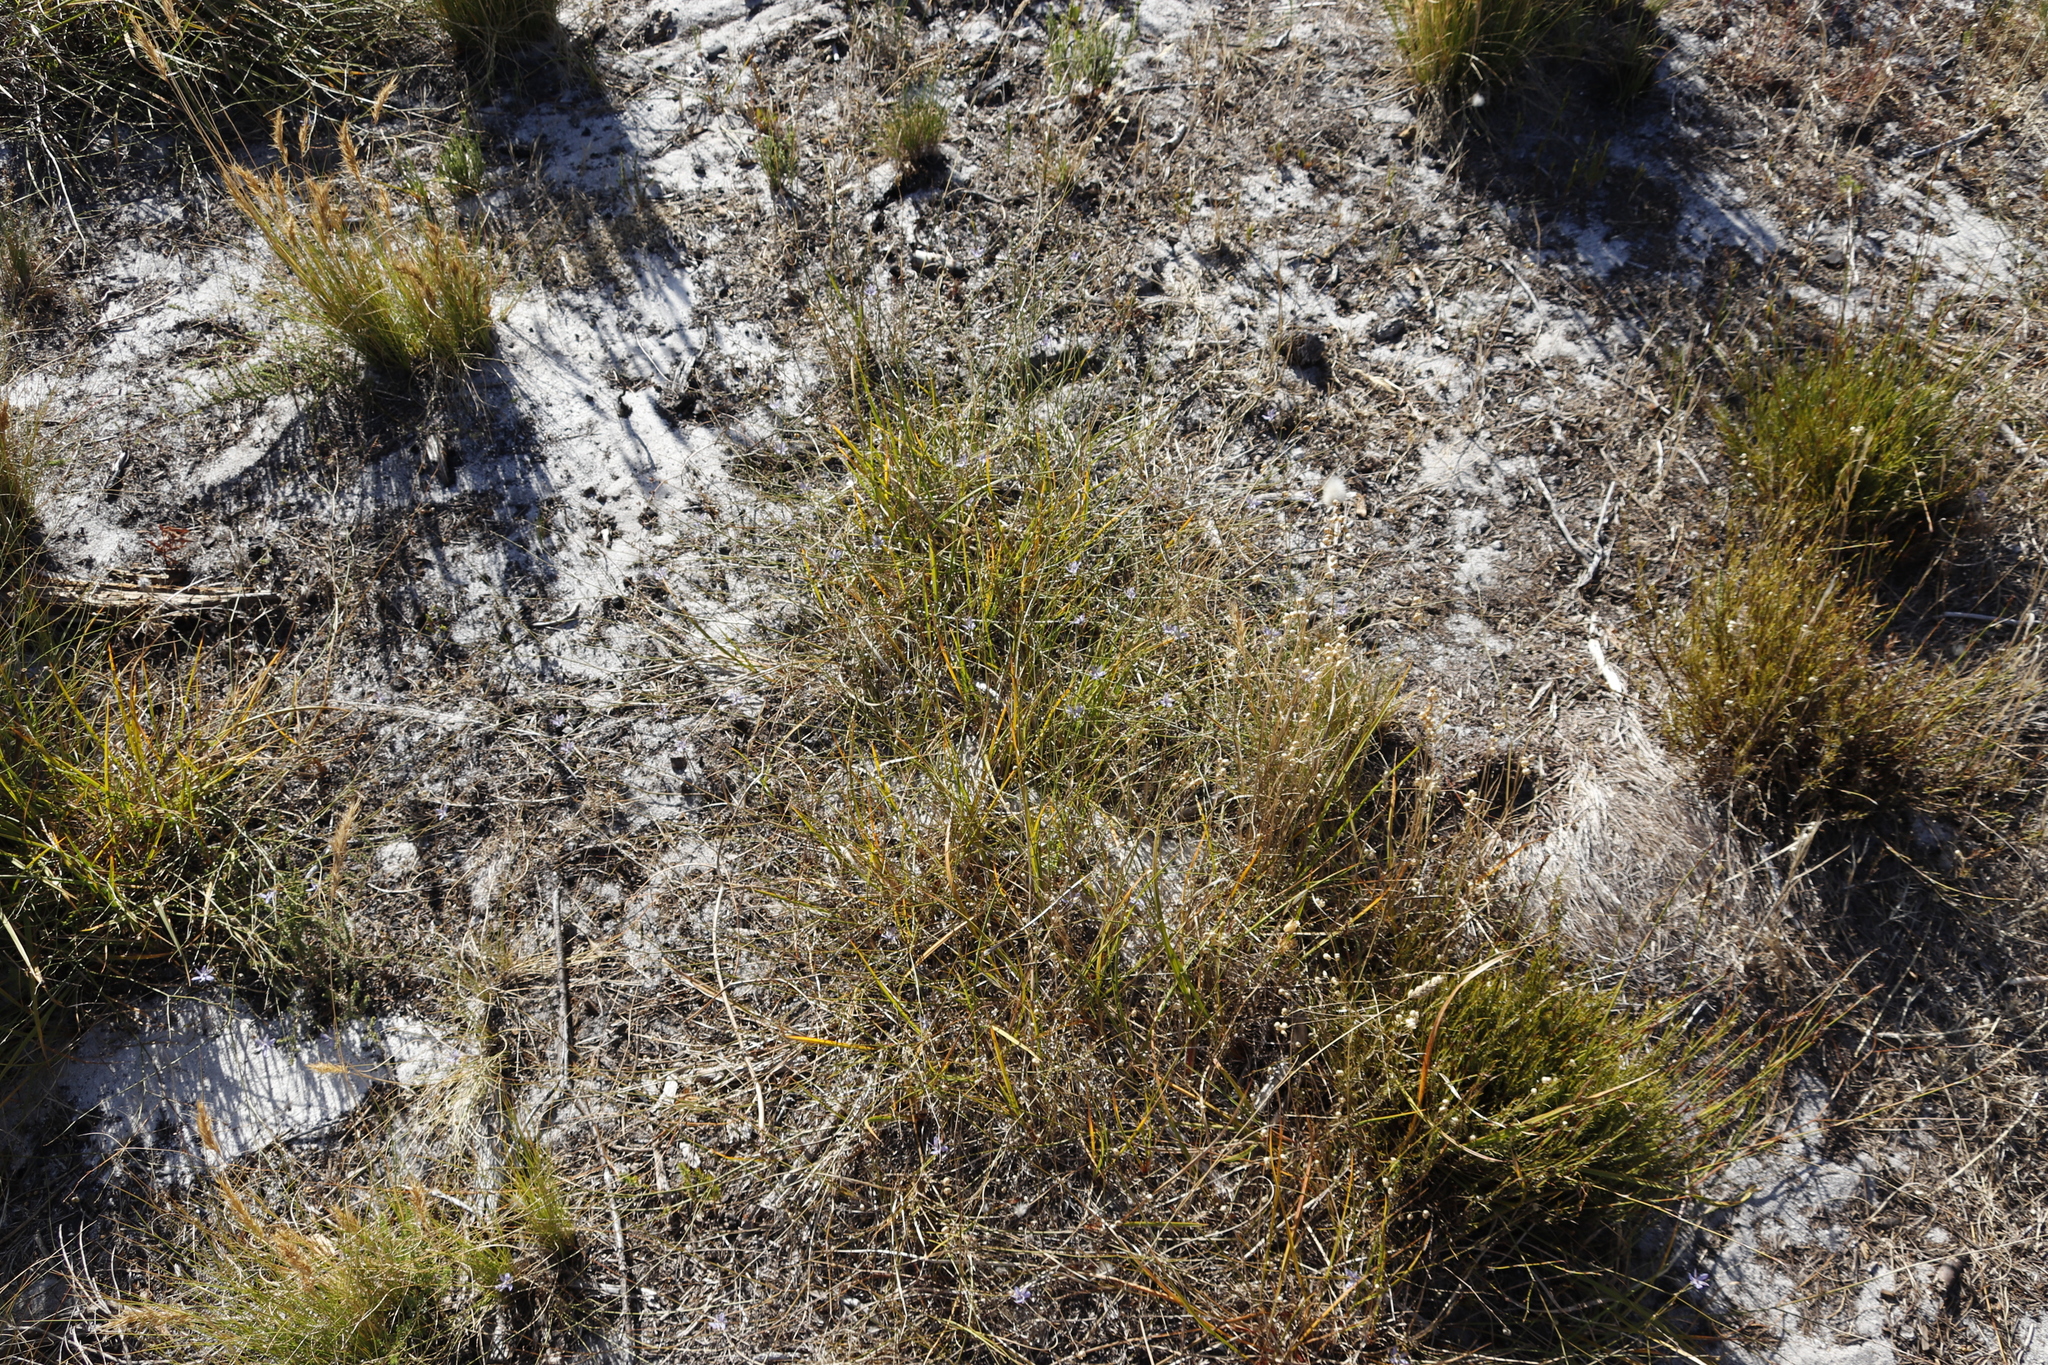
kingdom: Plantae
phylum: Tracheophyta
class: Liliopsida
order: Asparagales
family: Asphodelaceae
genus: Caesia
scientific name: Caesia contorta
